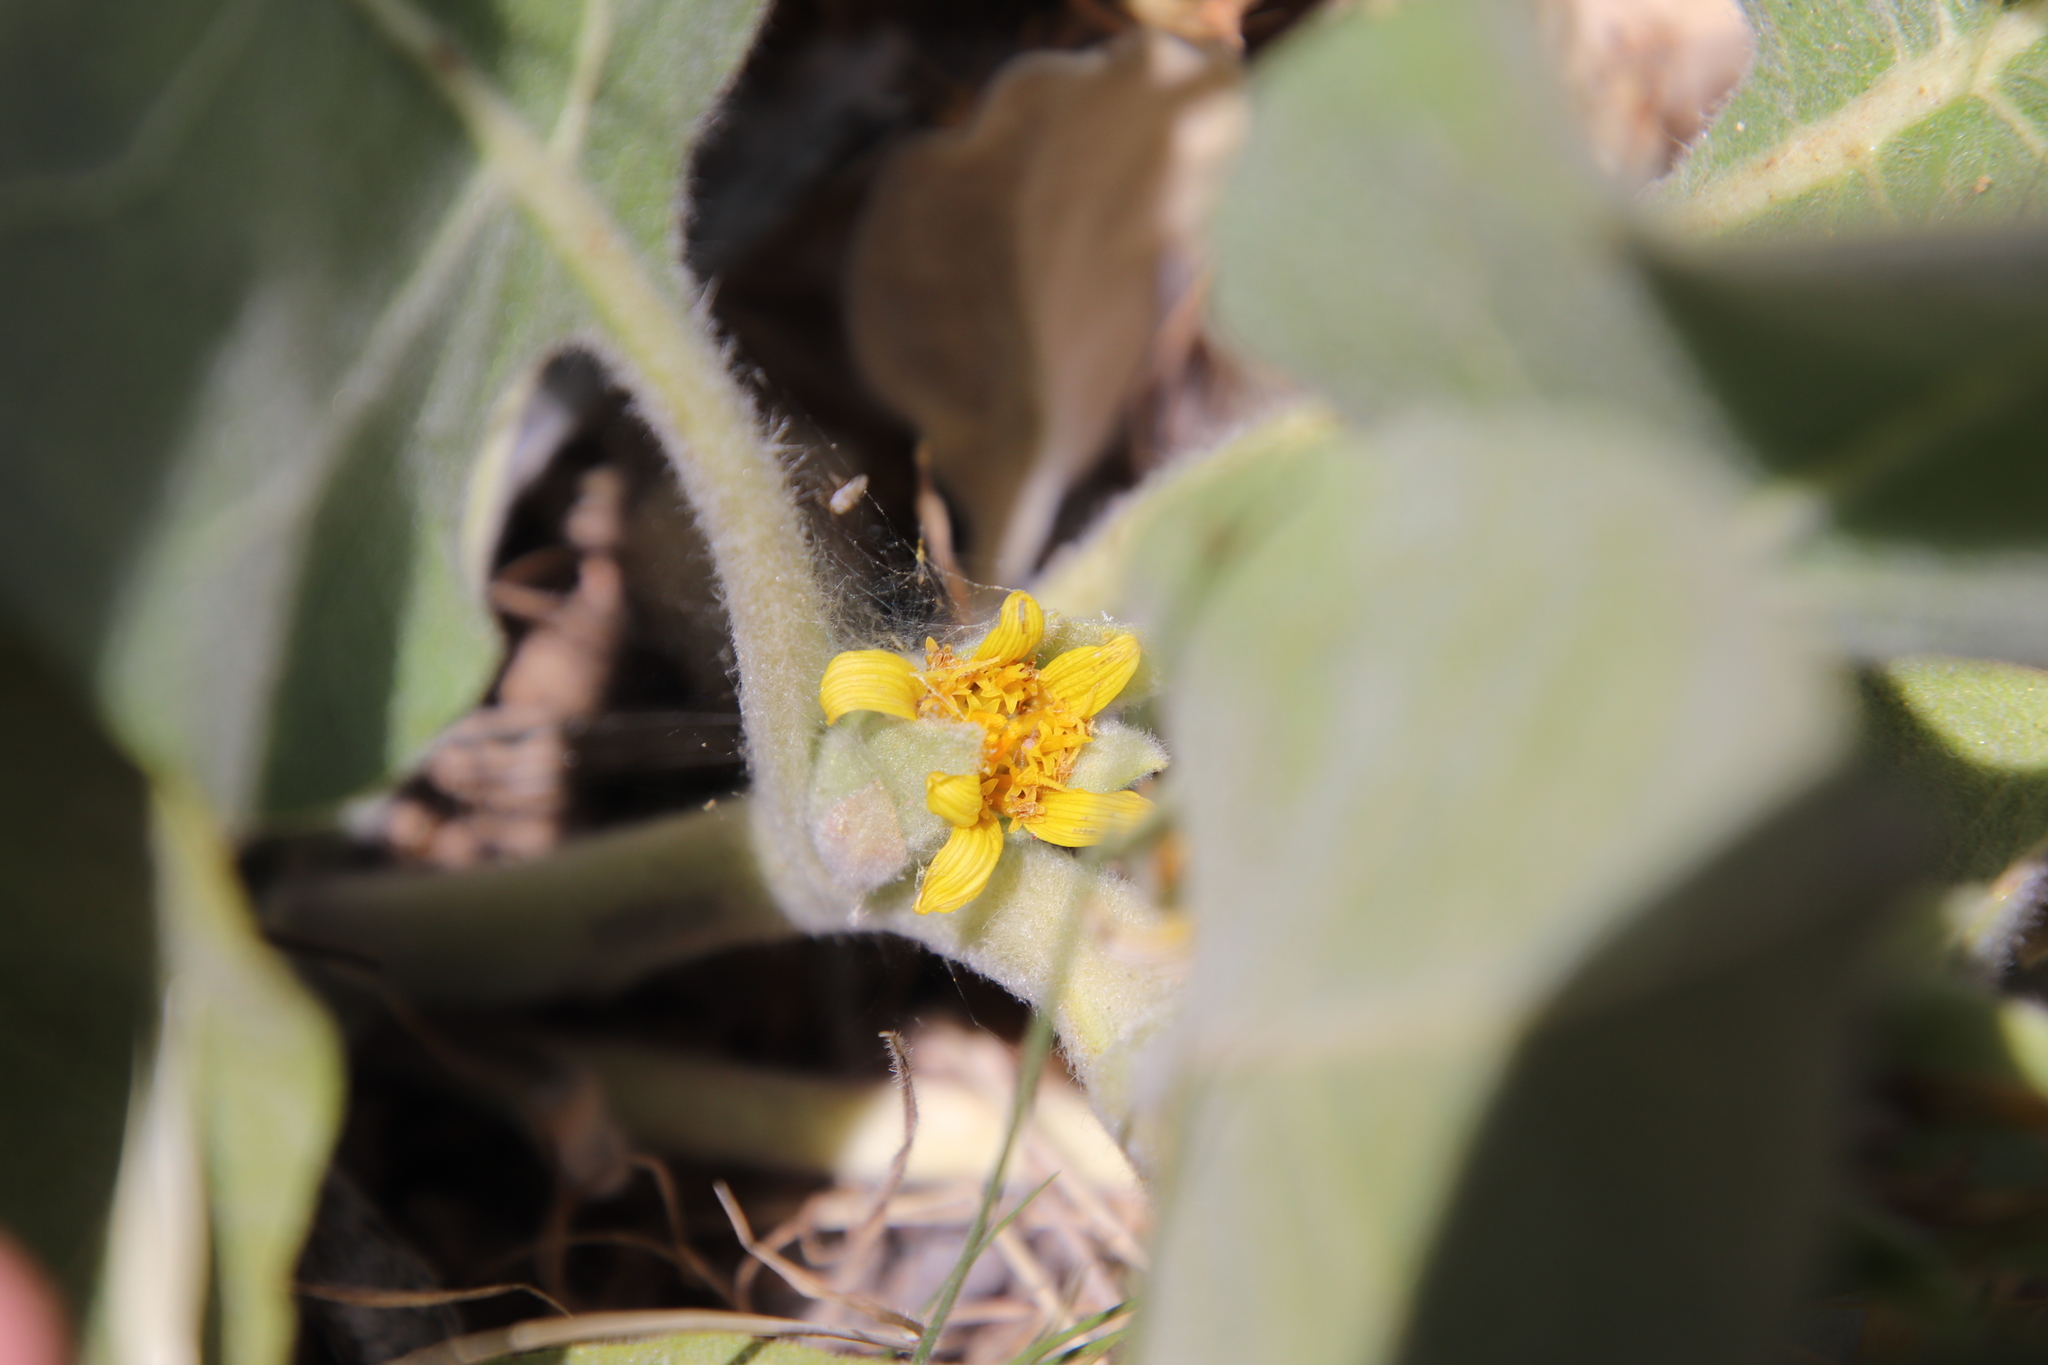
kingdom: Plantae
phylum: Tracheophyta
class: Magnoliopsida
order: Asterales
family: Asteraceae
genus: Agnorhiza
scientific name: Agnorhiza ovata
